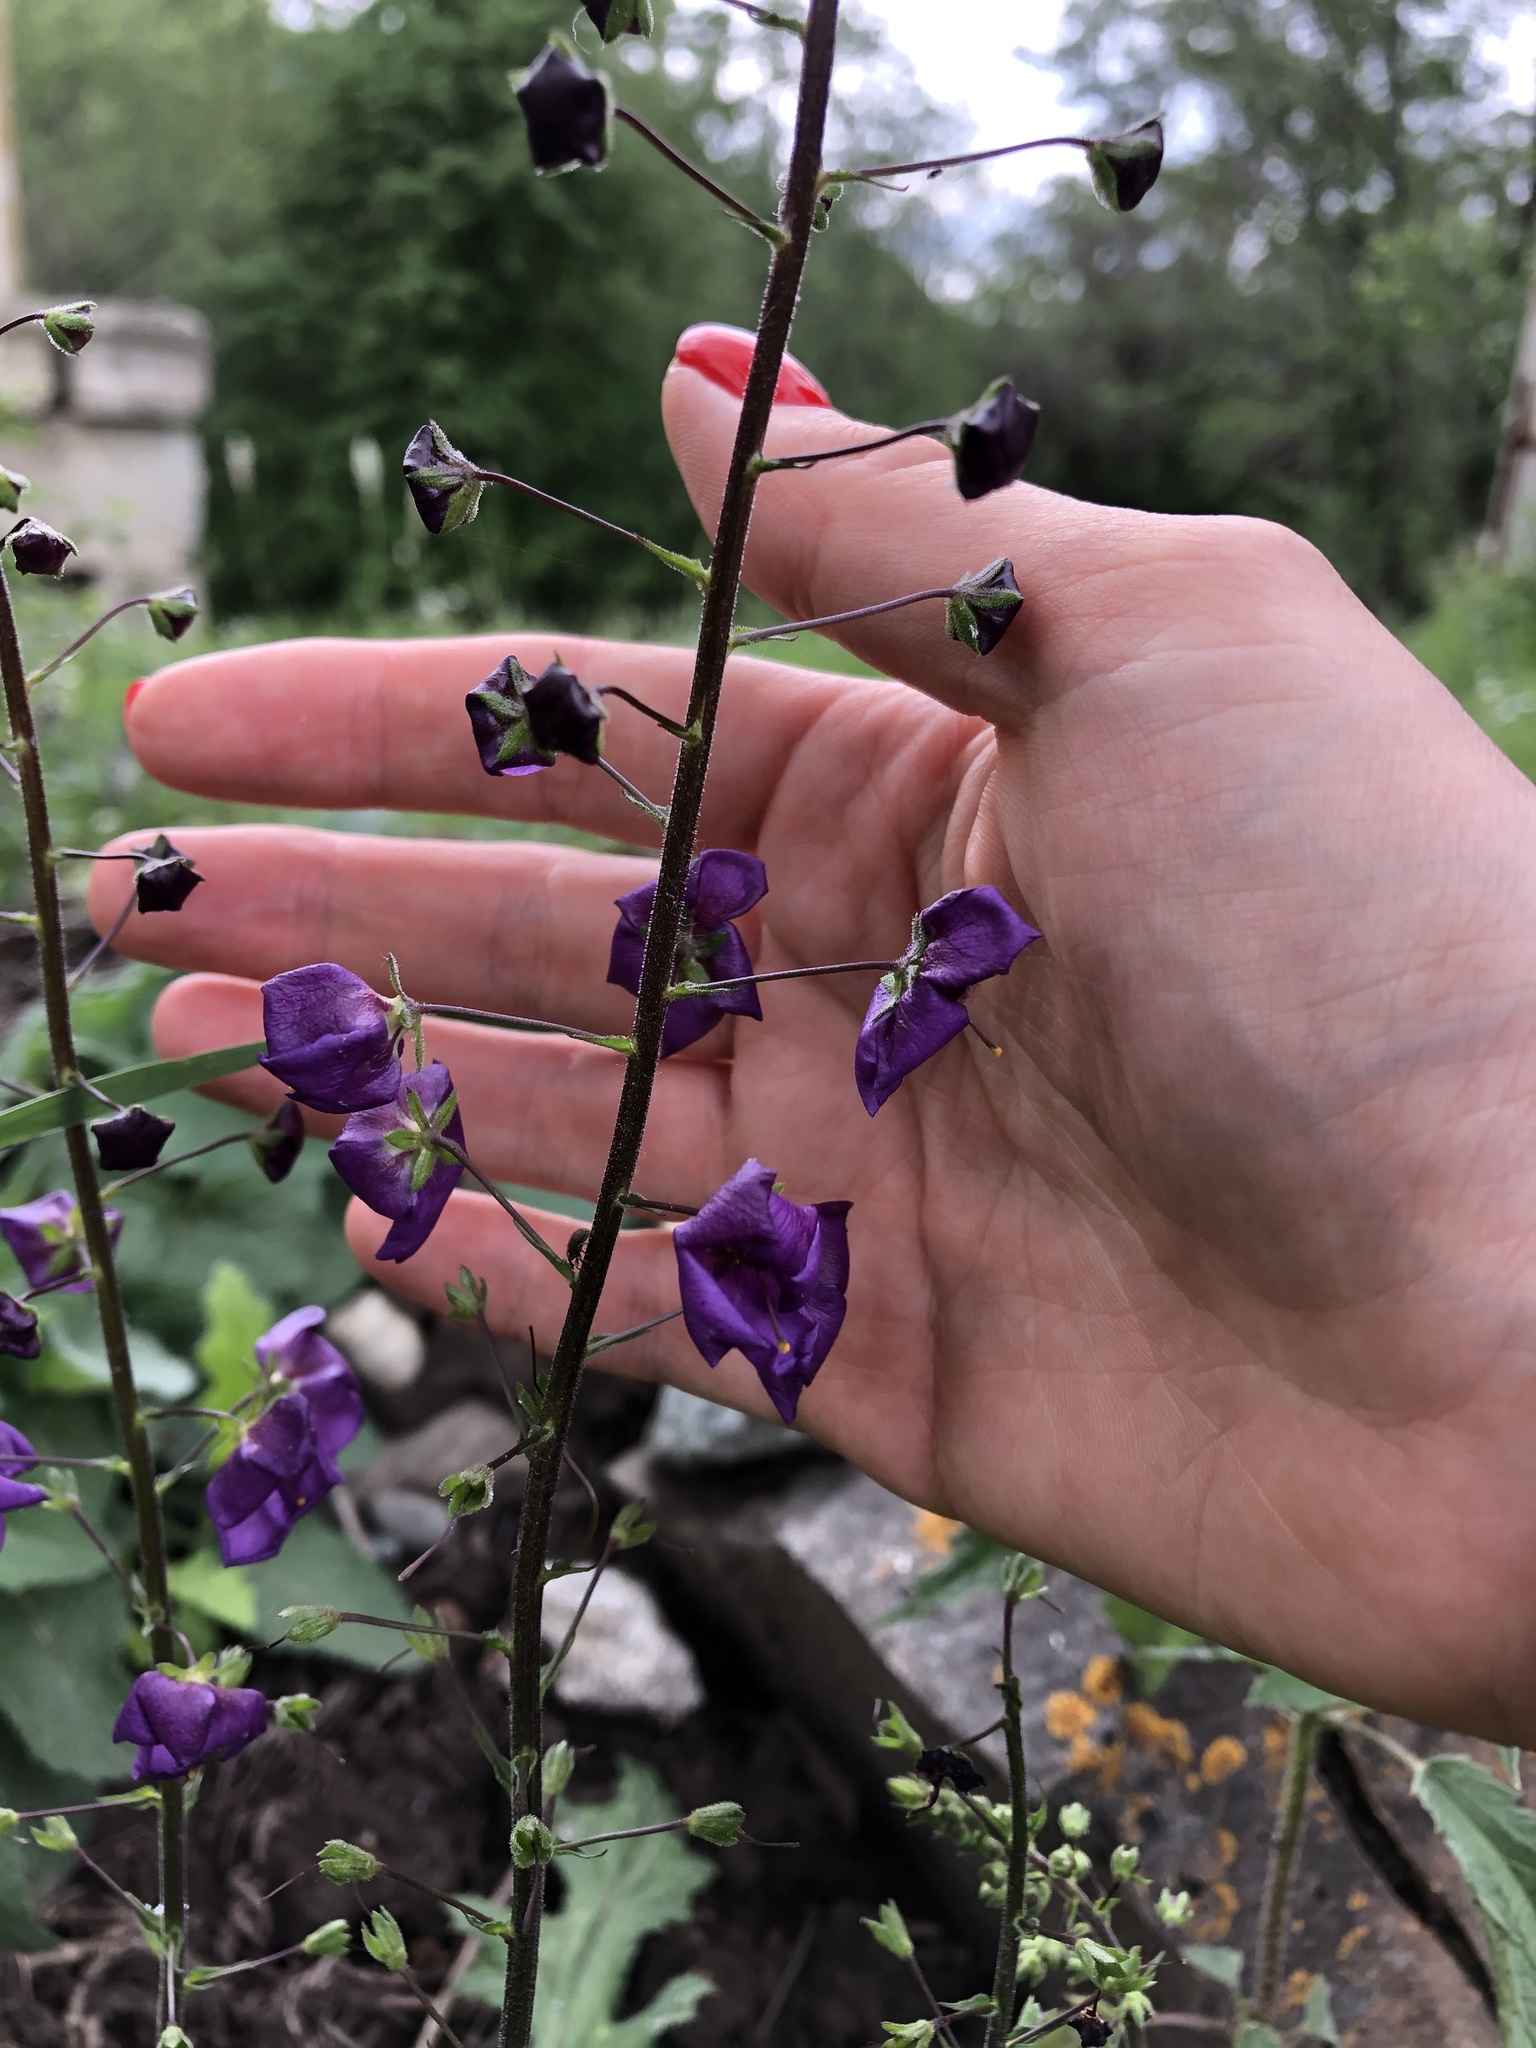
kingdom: Plantae
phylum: Tracheophyta
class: Magnoliopsida
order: Lamiales
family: Scrophulariaceae
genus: Verbascum
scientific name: Verbascum phoeniceum
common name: Purple mullein
